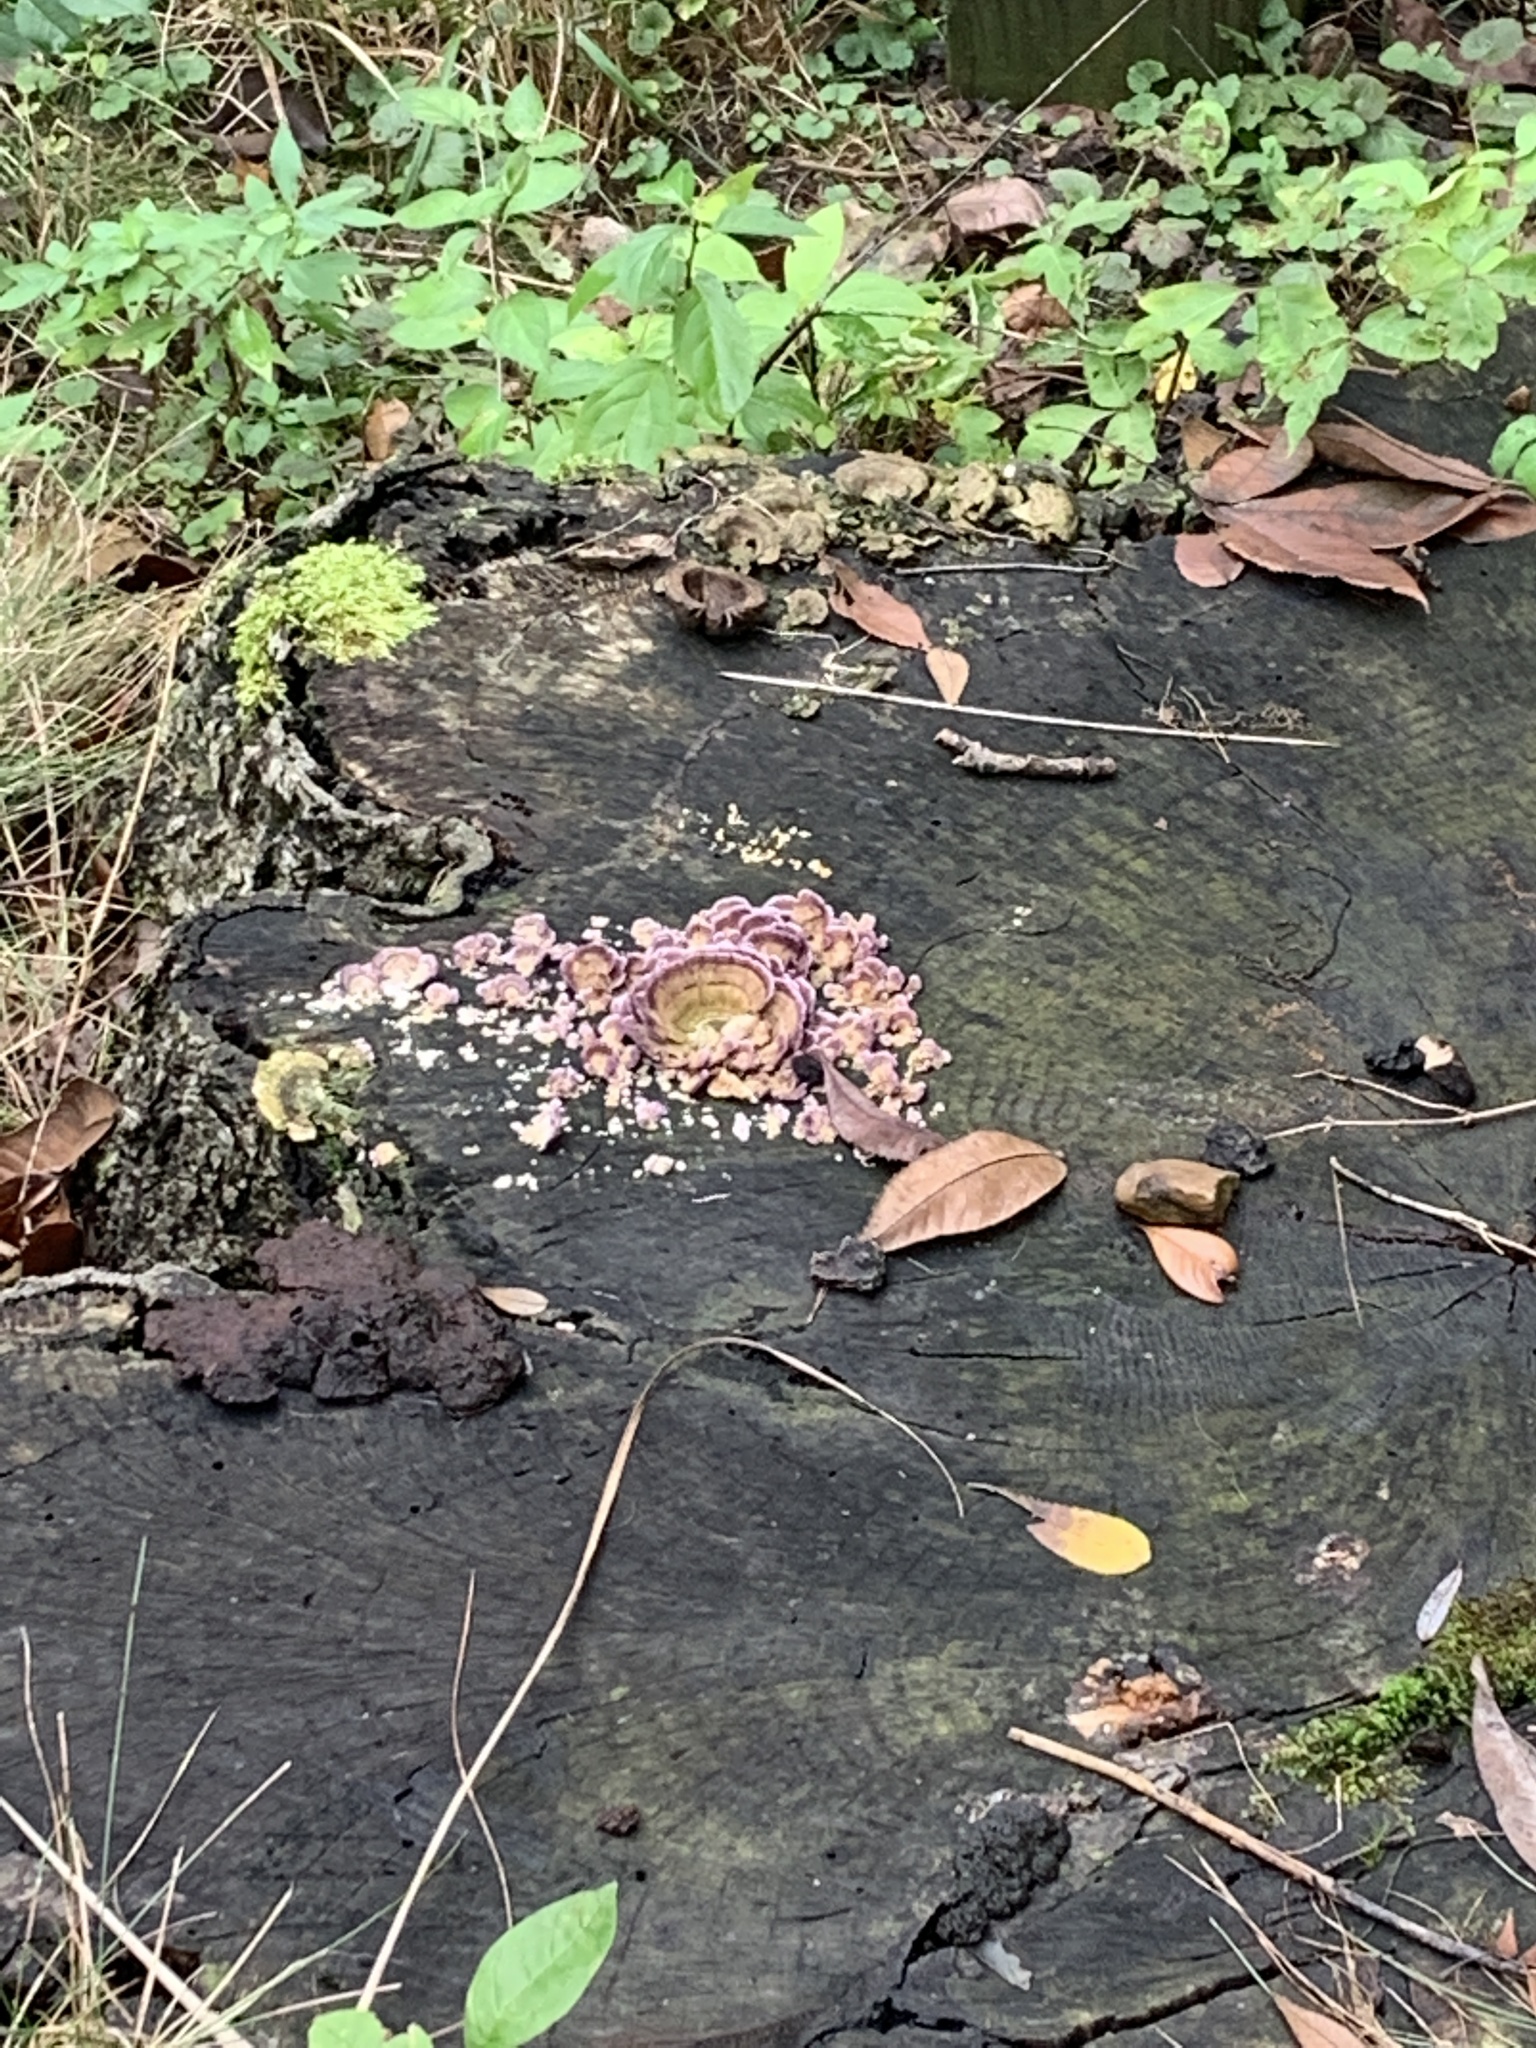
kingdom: Fungi
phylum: Basidiomycota
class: Agaricomycetes
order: Hymenochaetales
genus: Trichaptum
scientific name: Trichaptum biforme
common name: Violet-toothed polypore
